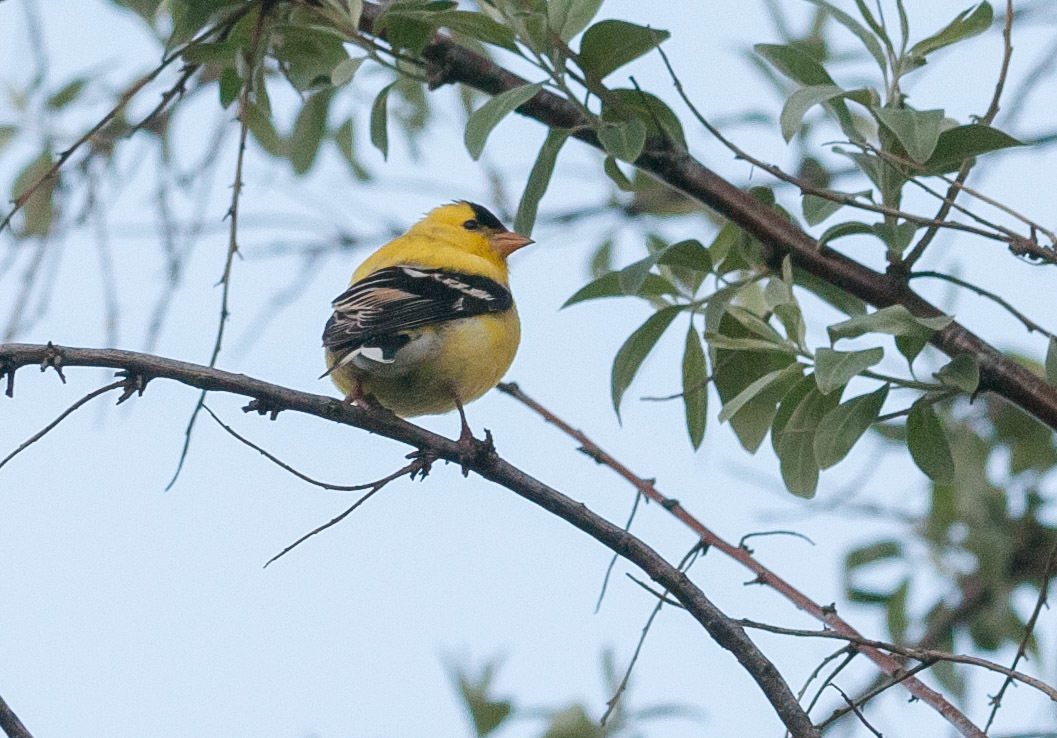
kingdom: Animalia
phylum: Chordata
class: Aves
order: Passeriformes
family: Fringillidae
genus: Spinus
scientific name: Spinus tristis
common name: American goldfinch
